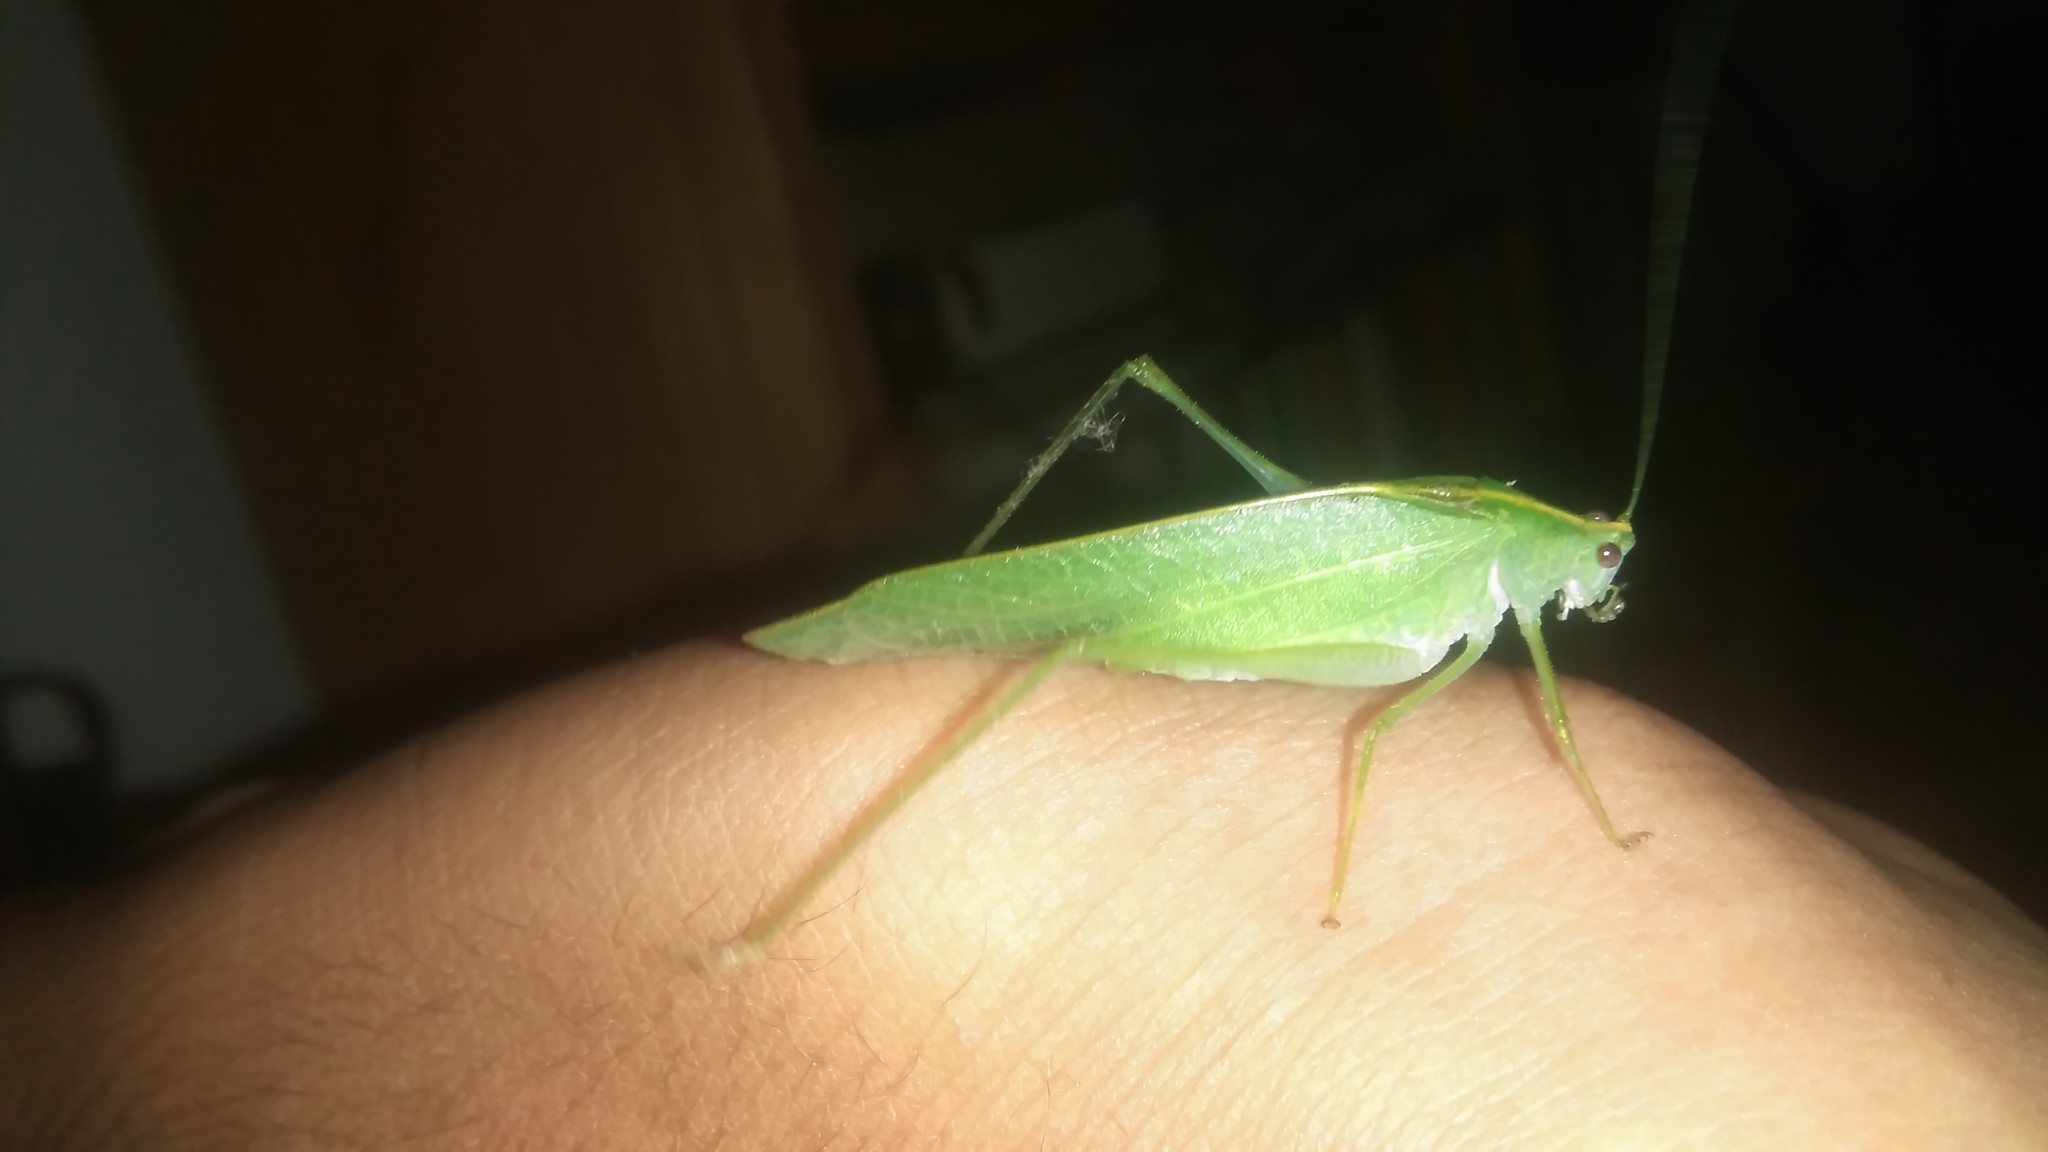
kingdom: Animalia
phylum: Arthropoda
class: Insecta
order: Orthoptera
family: Tettigoniidae
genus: Grammadera
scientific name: Grammadera clara
